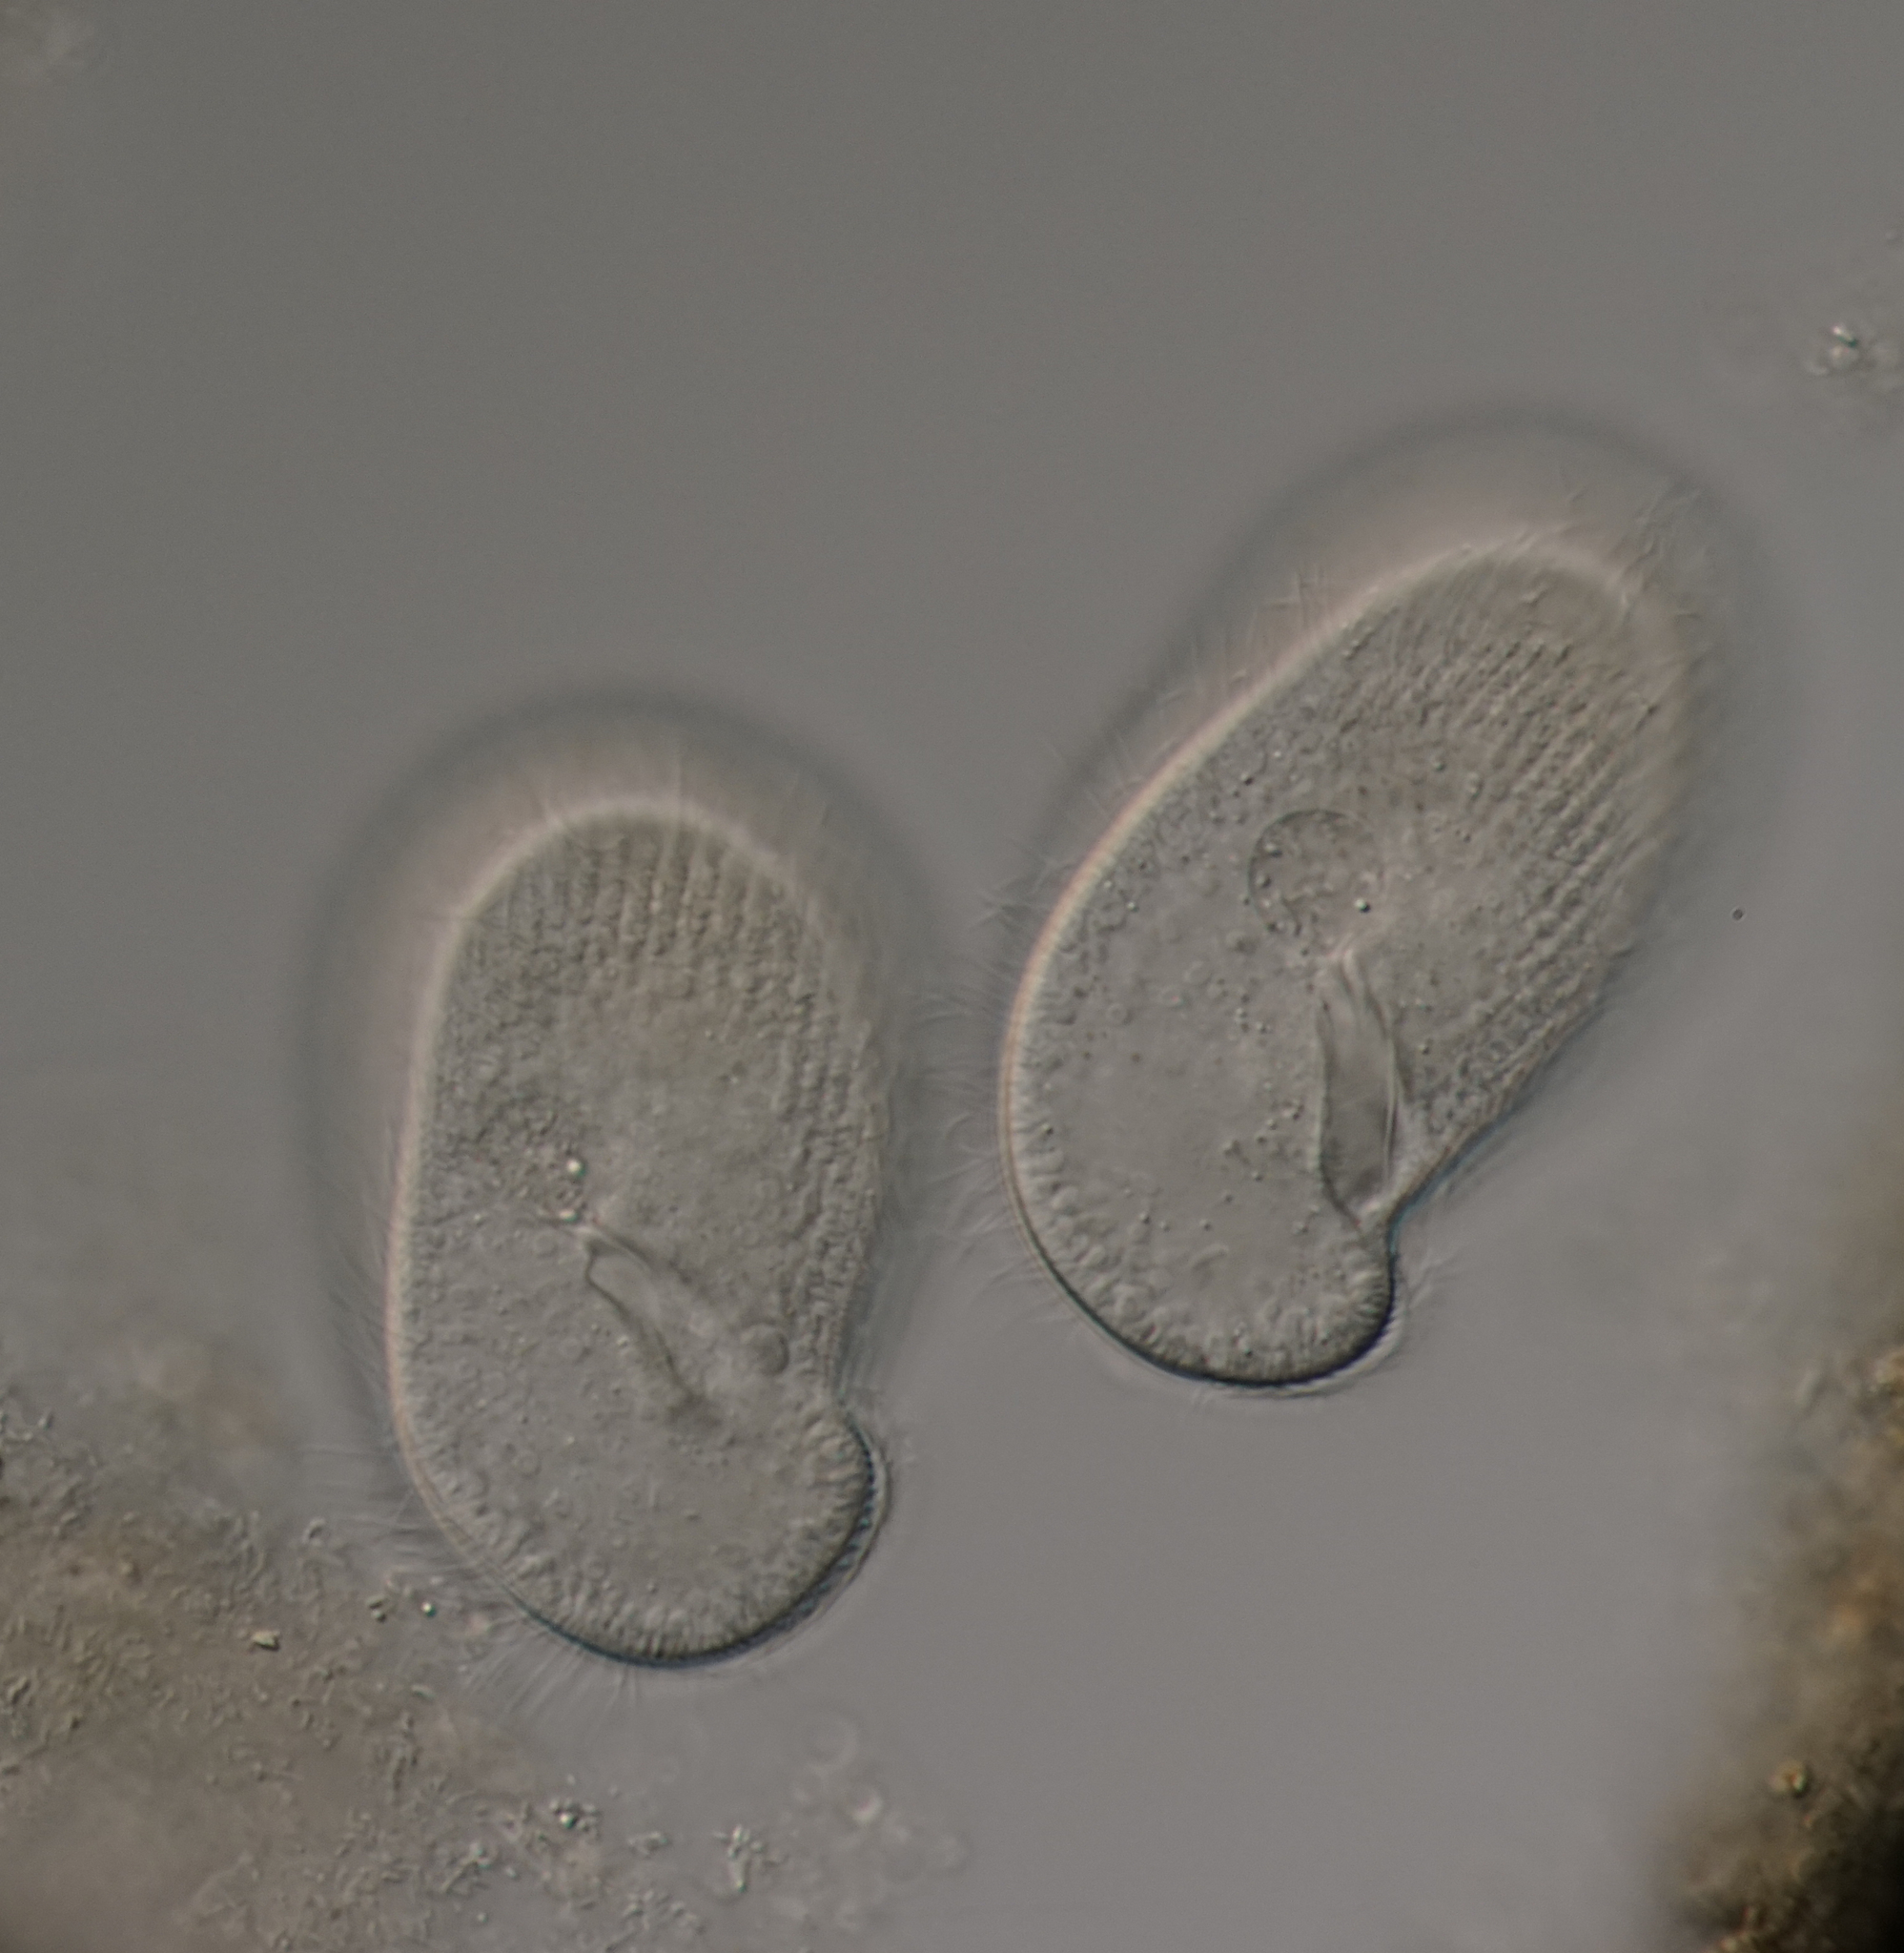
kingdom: Chromista
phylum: Ciliophora
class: Oligohymenophorea
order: Hymenostomatida
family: Turaniellidae
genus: Paracolpidium
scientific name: Paracolpidium truncatum
